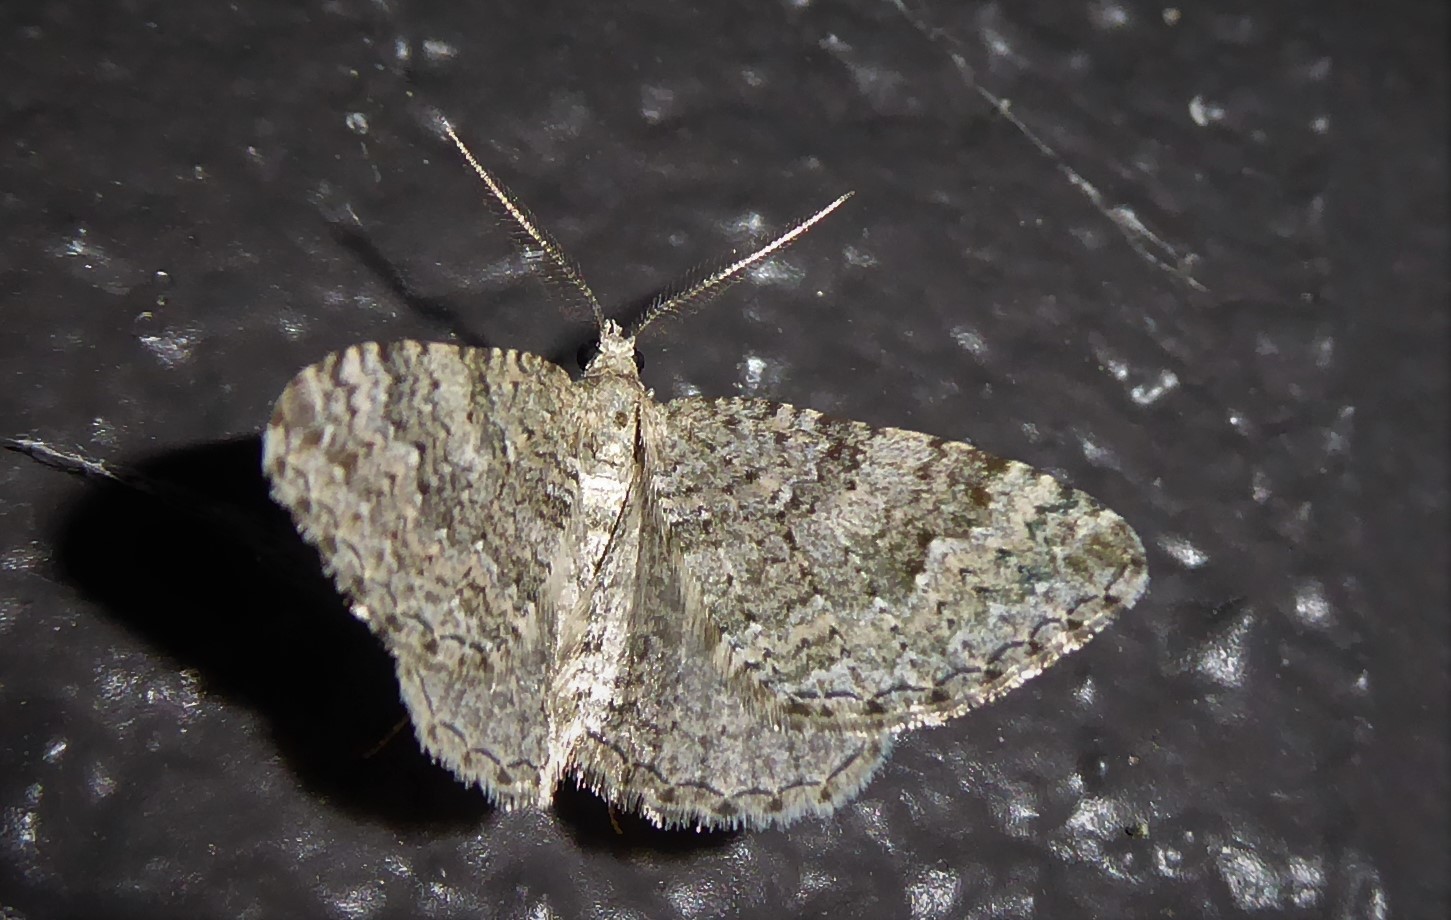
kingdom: Animalia
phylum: Arthropoda
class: Insecta
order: Lepidoptera
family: Geometridae
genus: Helastia
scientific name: Helastia corcularia
